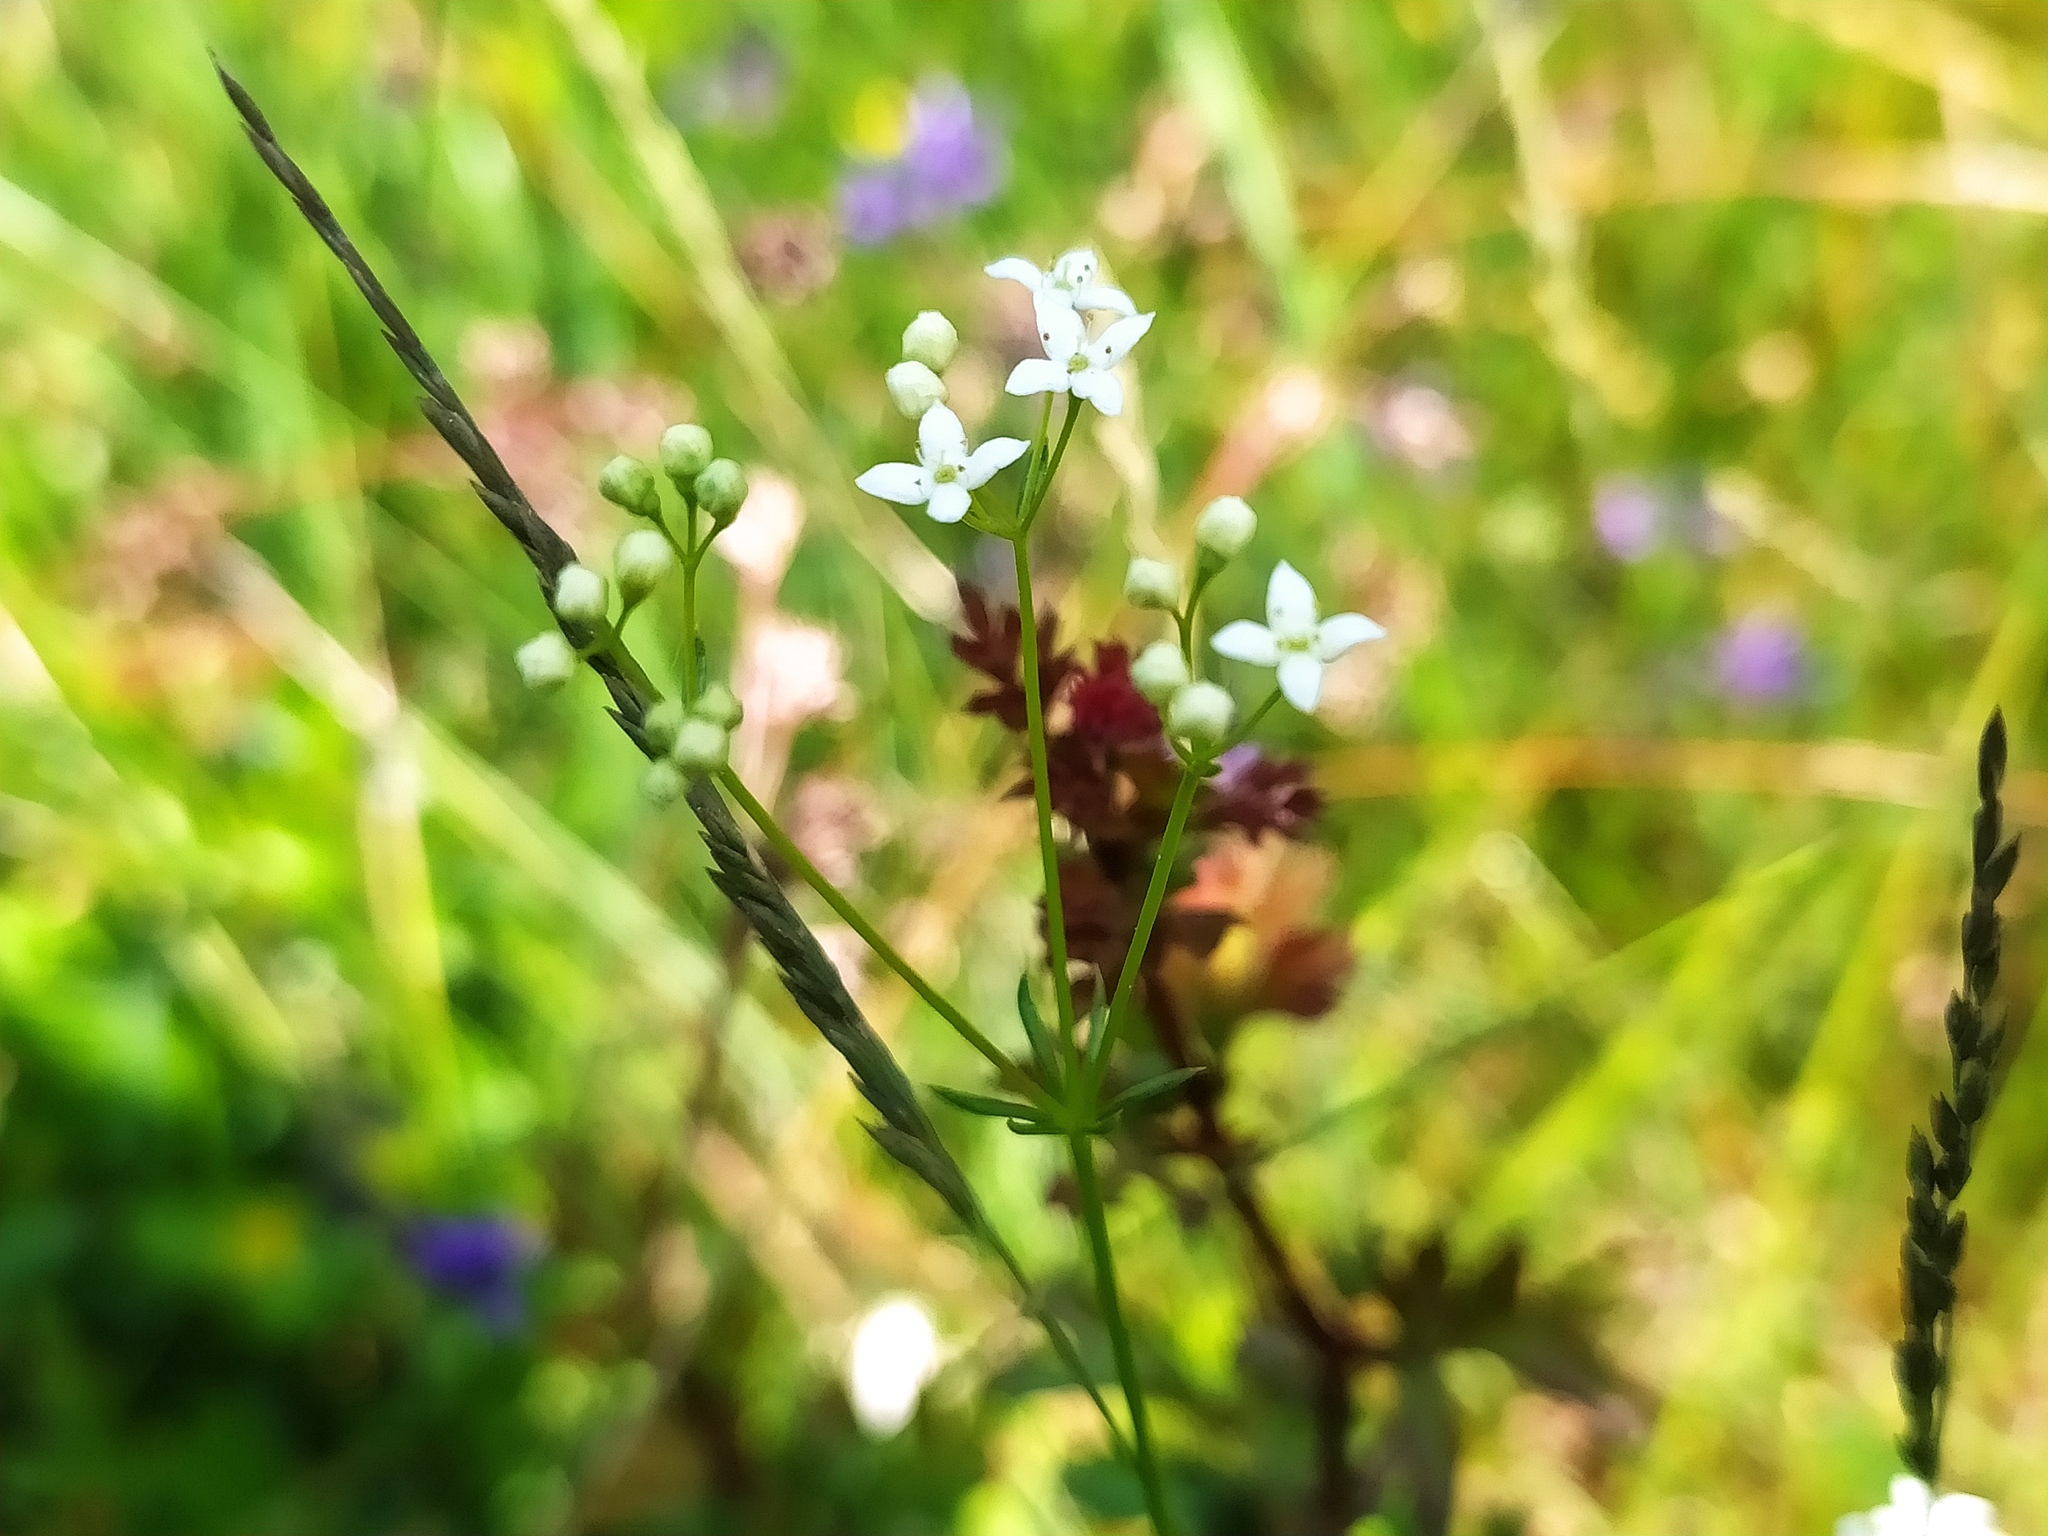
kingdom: Plantae
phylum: Tracheophyta
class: Magnoliopsida
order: Gentianales
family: Rubiaceae
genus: Galium
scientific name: Galium pumilum
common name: Slender bedstraw
